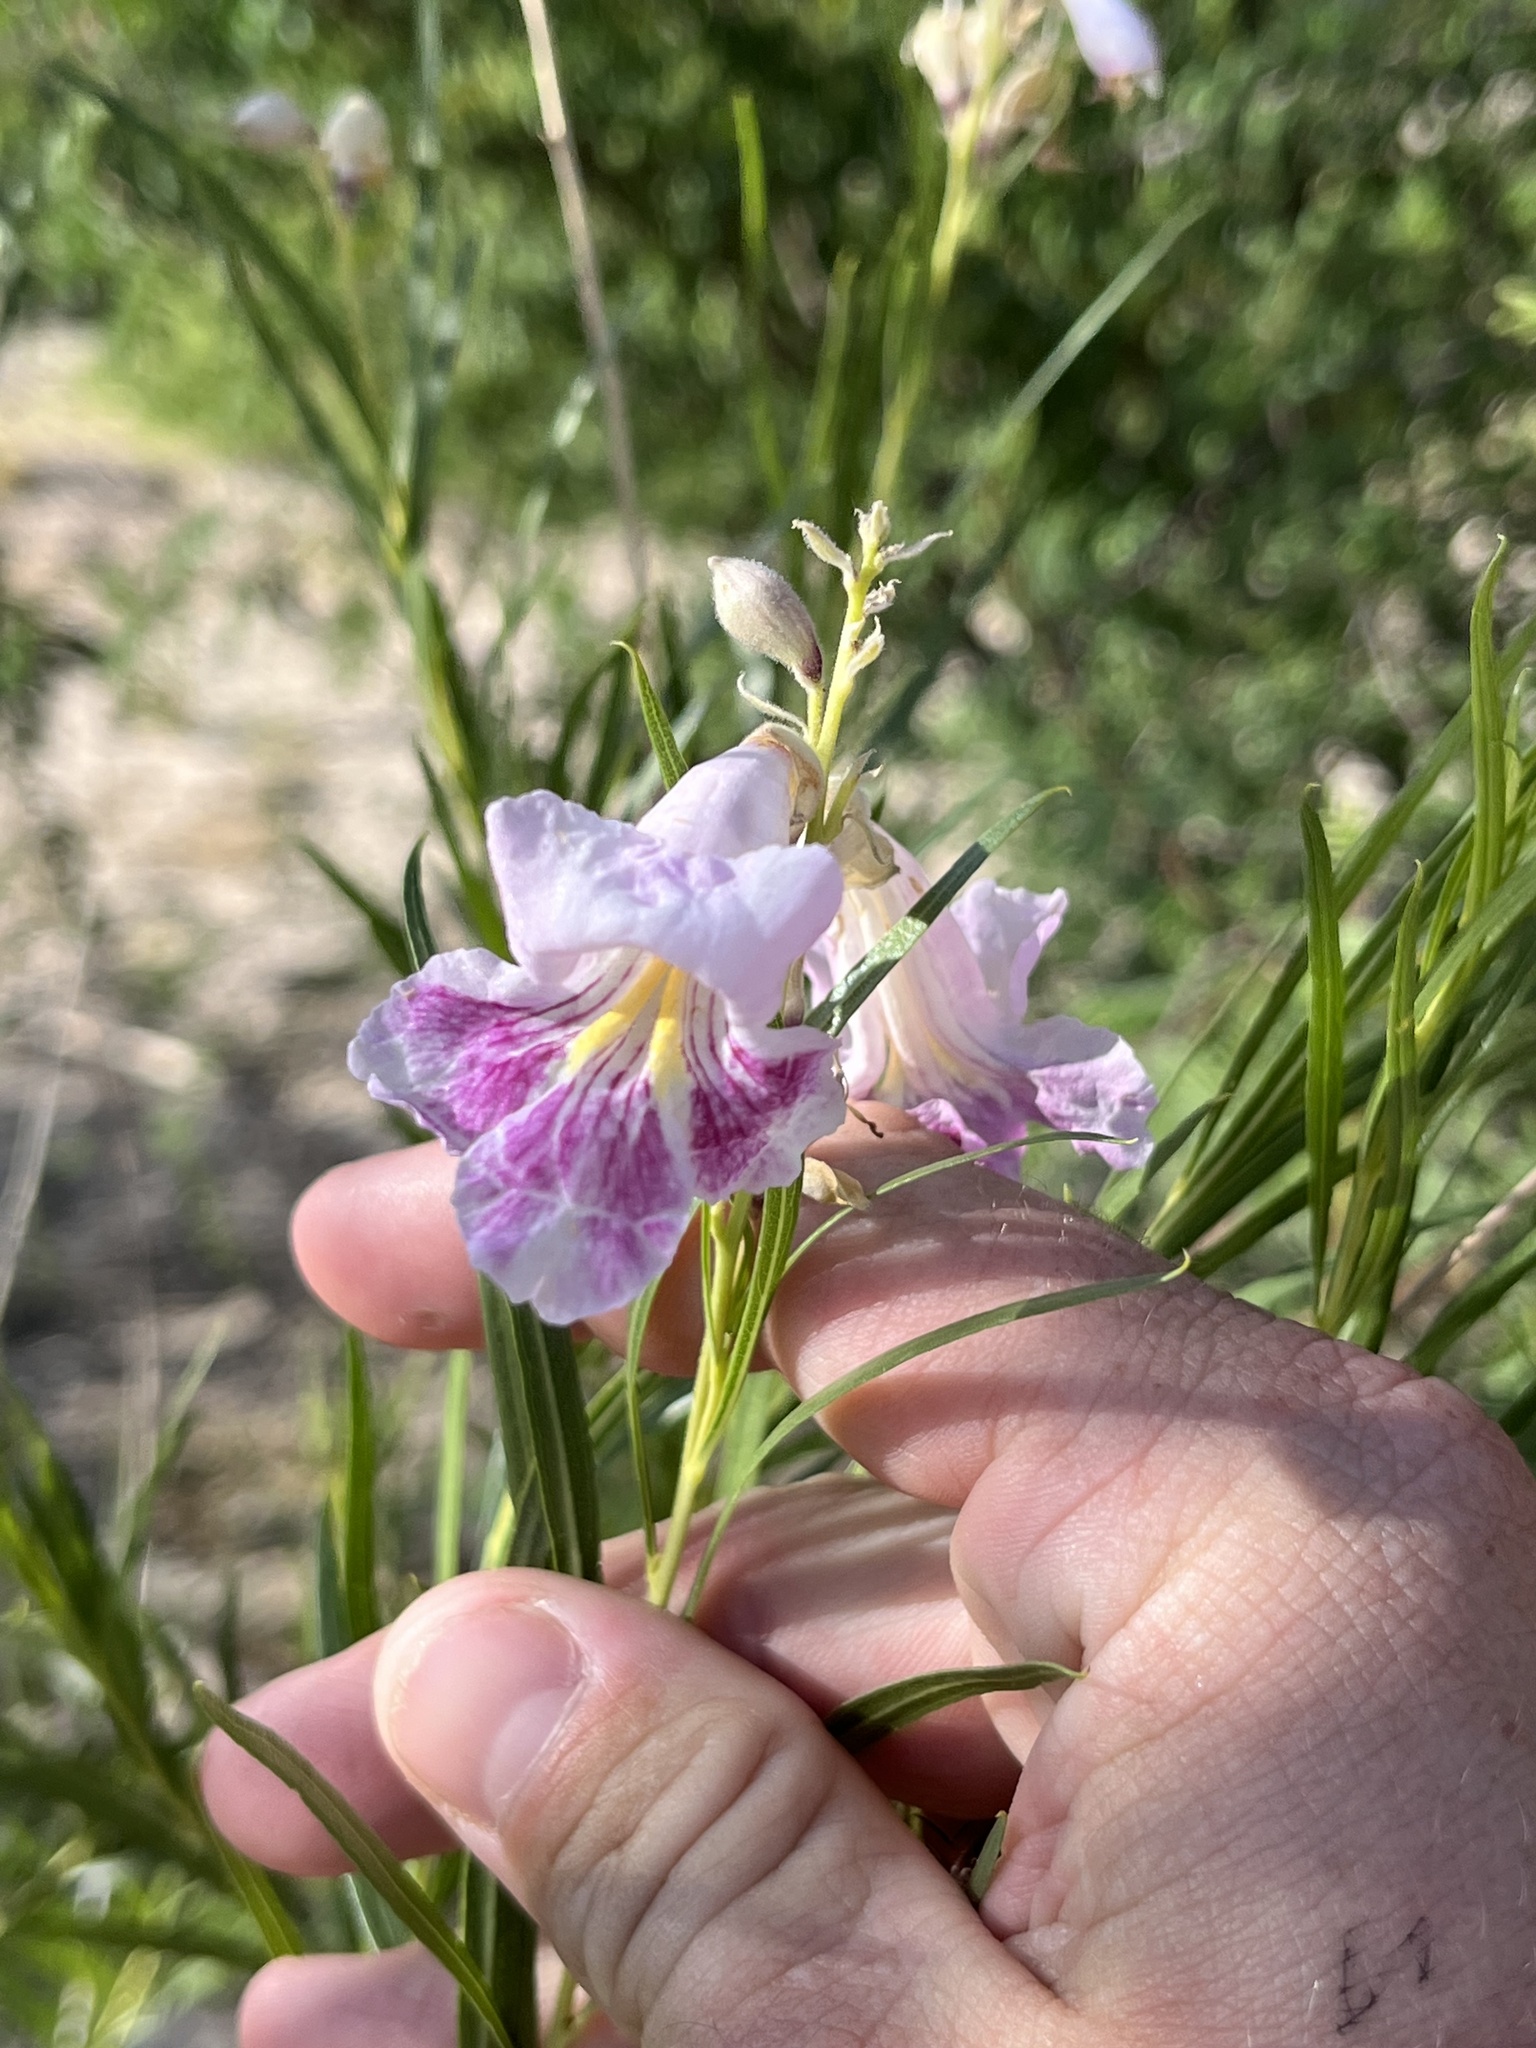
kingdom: Plantae
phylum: Tracheophyta
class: Magnoliopsida
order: Lamiales
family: Bignoniaceae
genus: Chilopsis
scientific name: Chilopsis linearis
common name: Desert-willow
